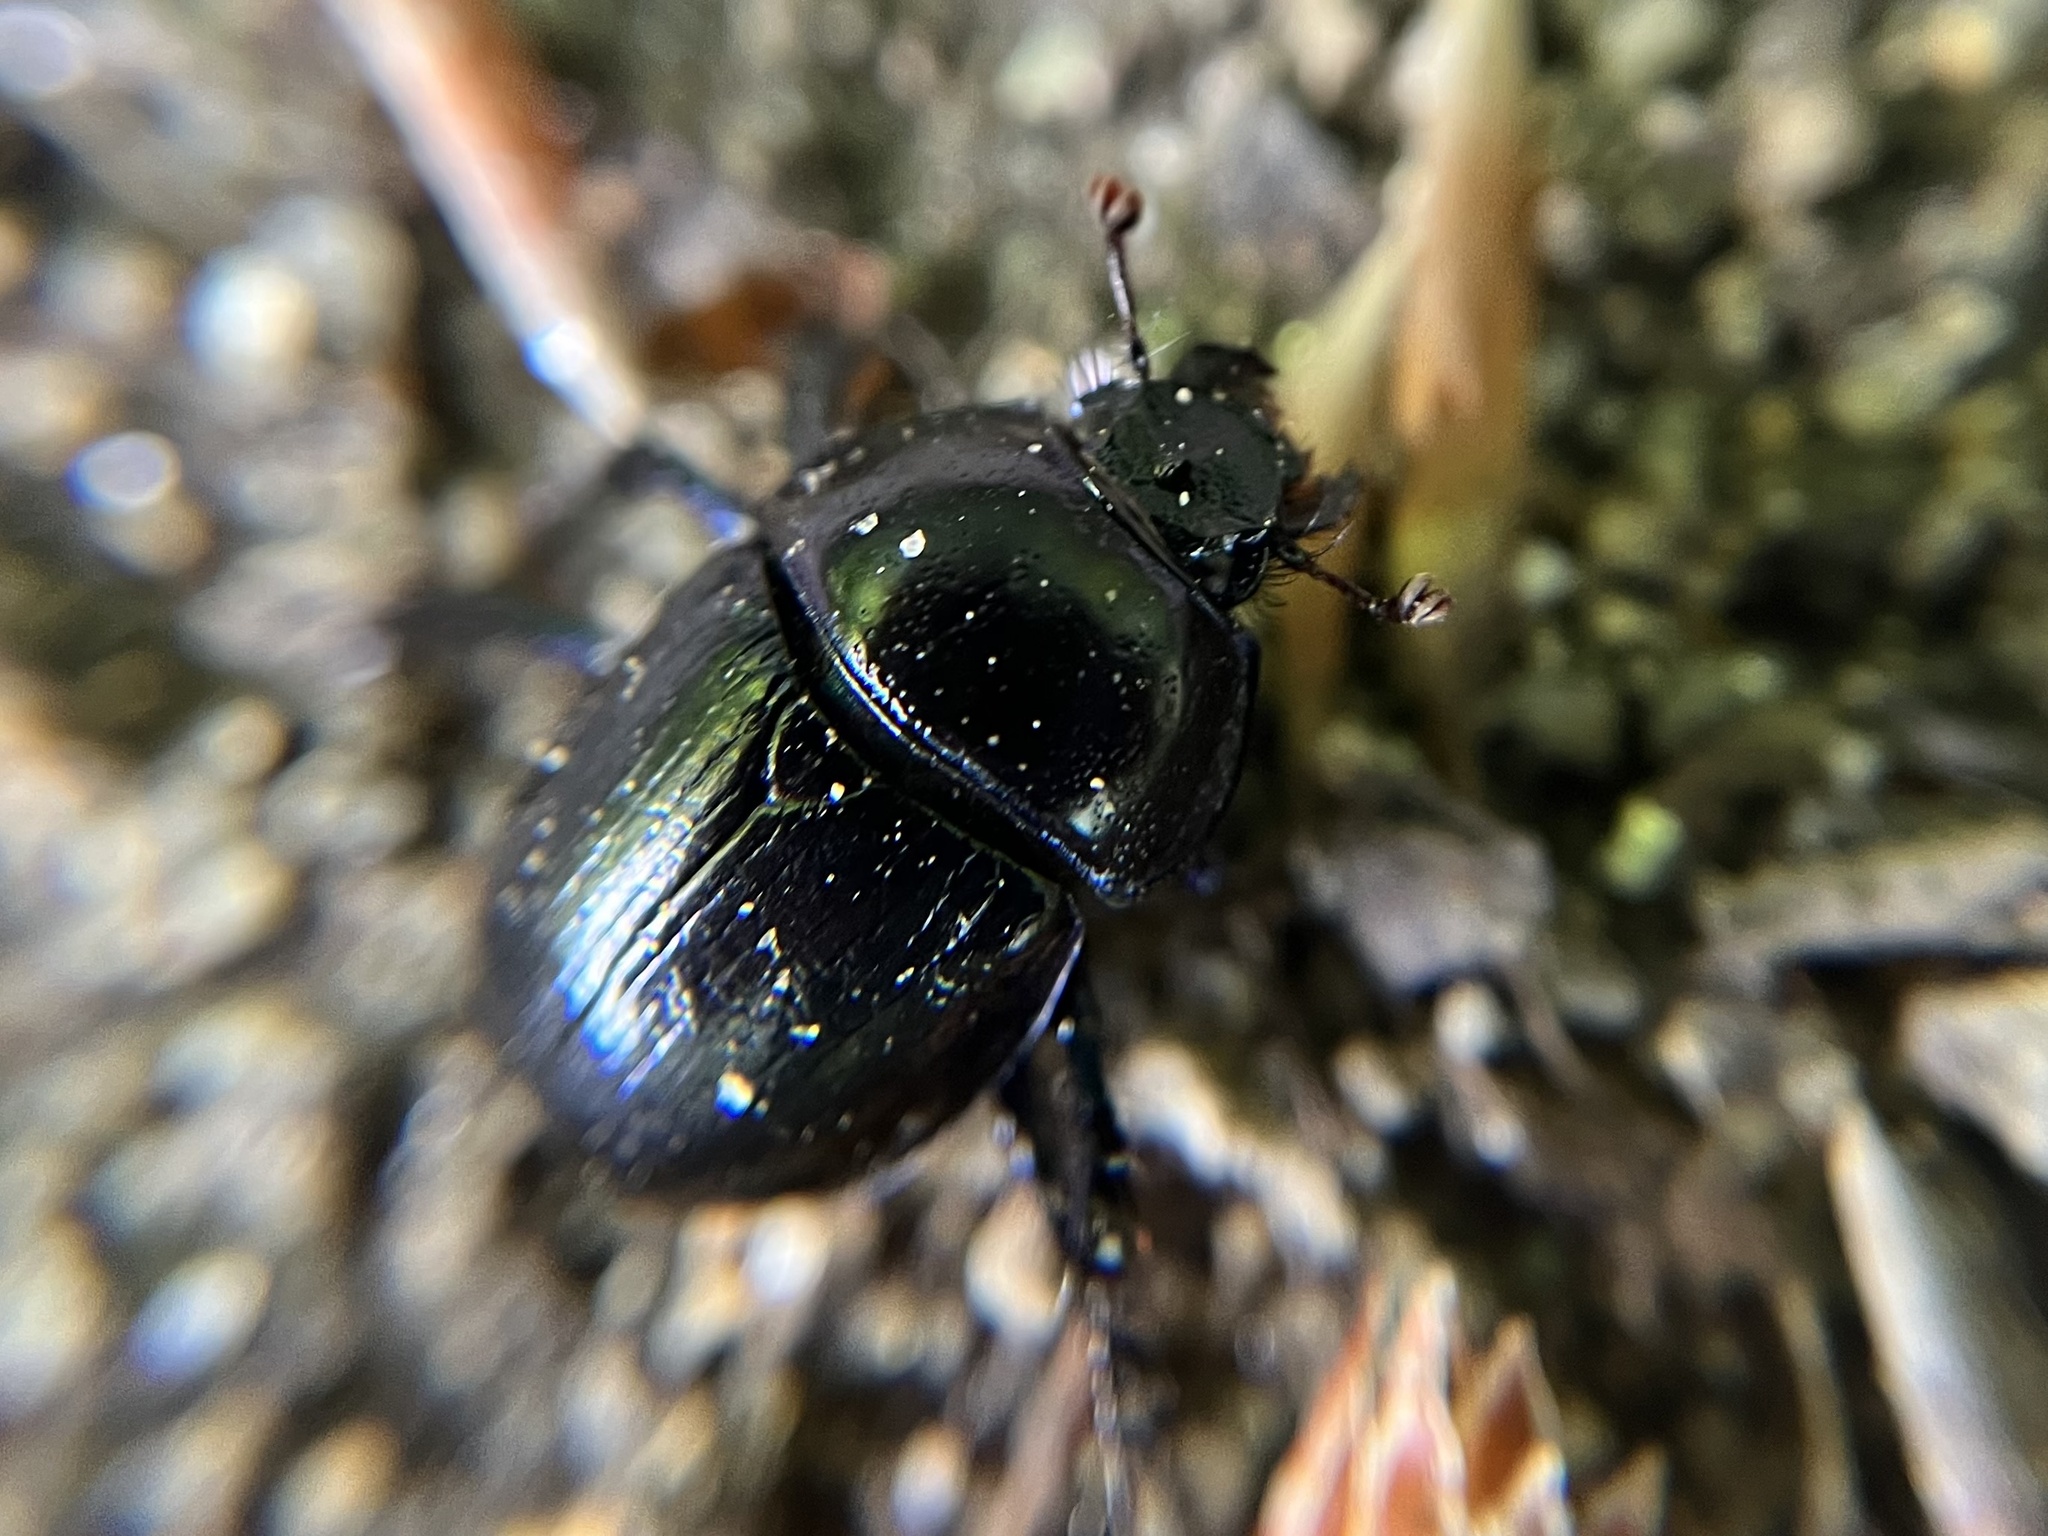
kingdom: Animalia
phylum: Arthropoda
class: Insecta
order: Coleoptera
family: Geotrupidae
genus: Anoplotrupes
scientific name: Anoplotrupes stercorosus
